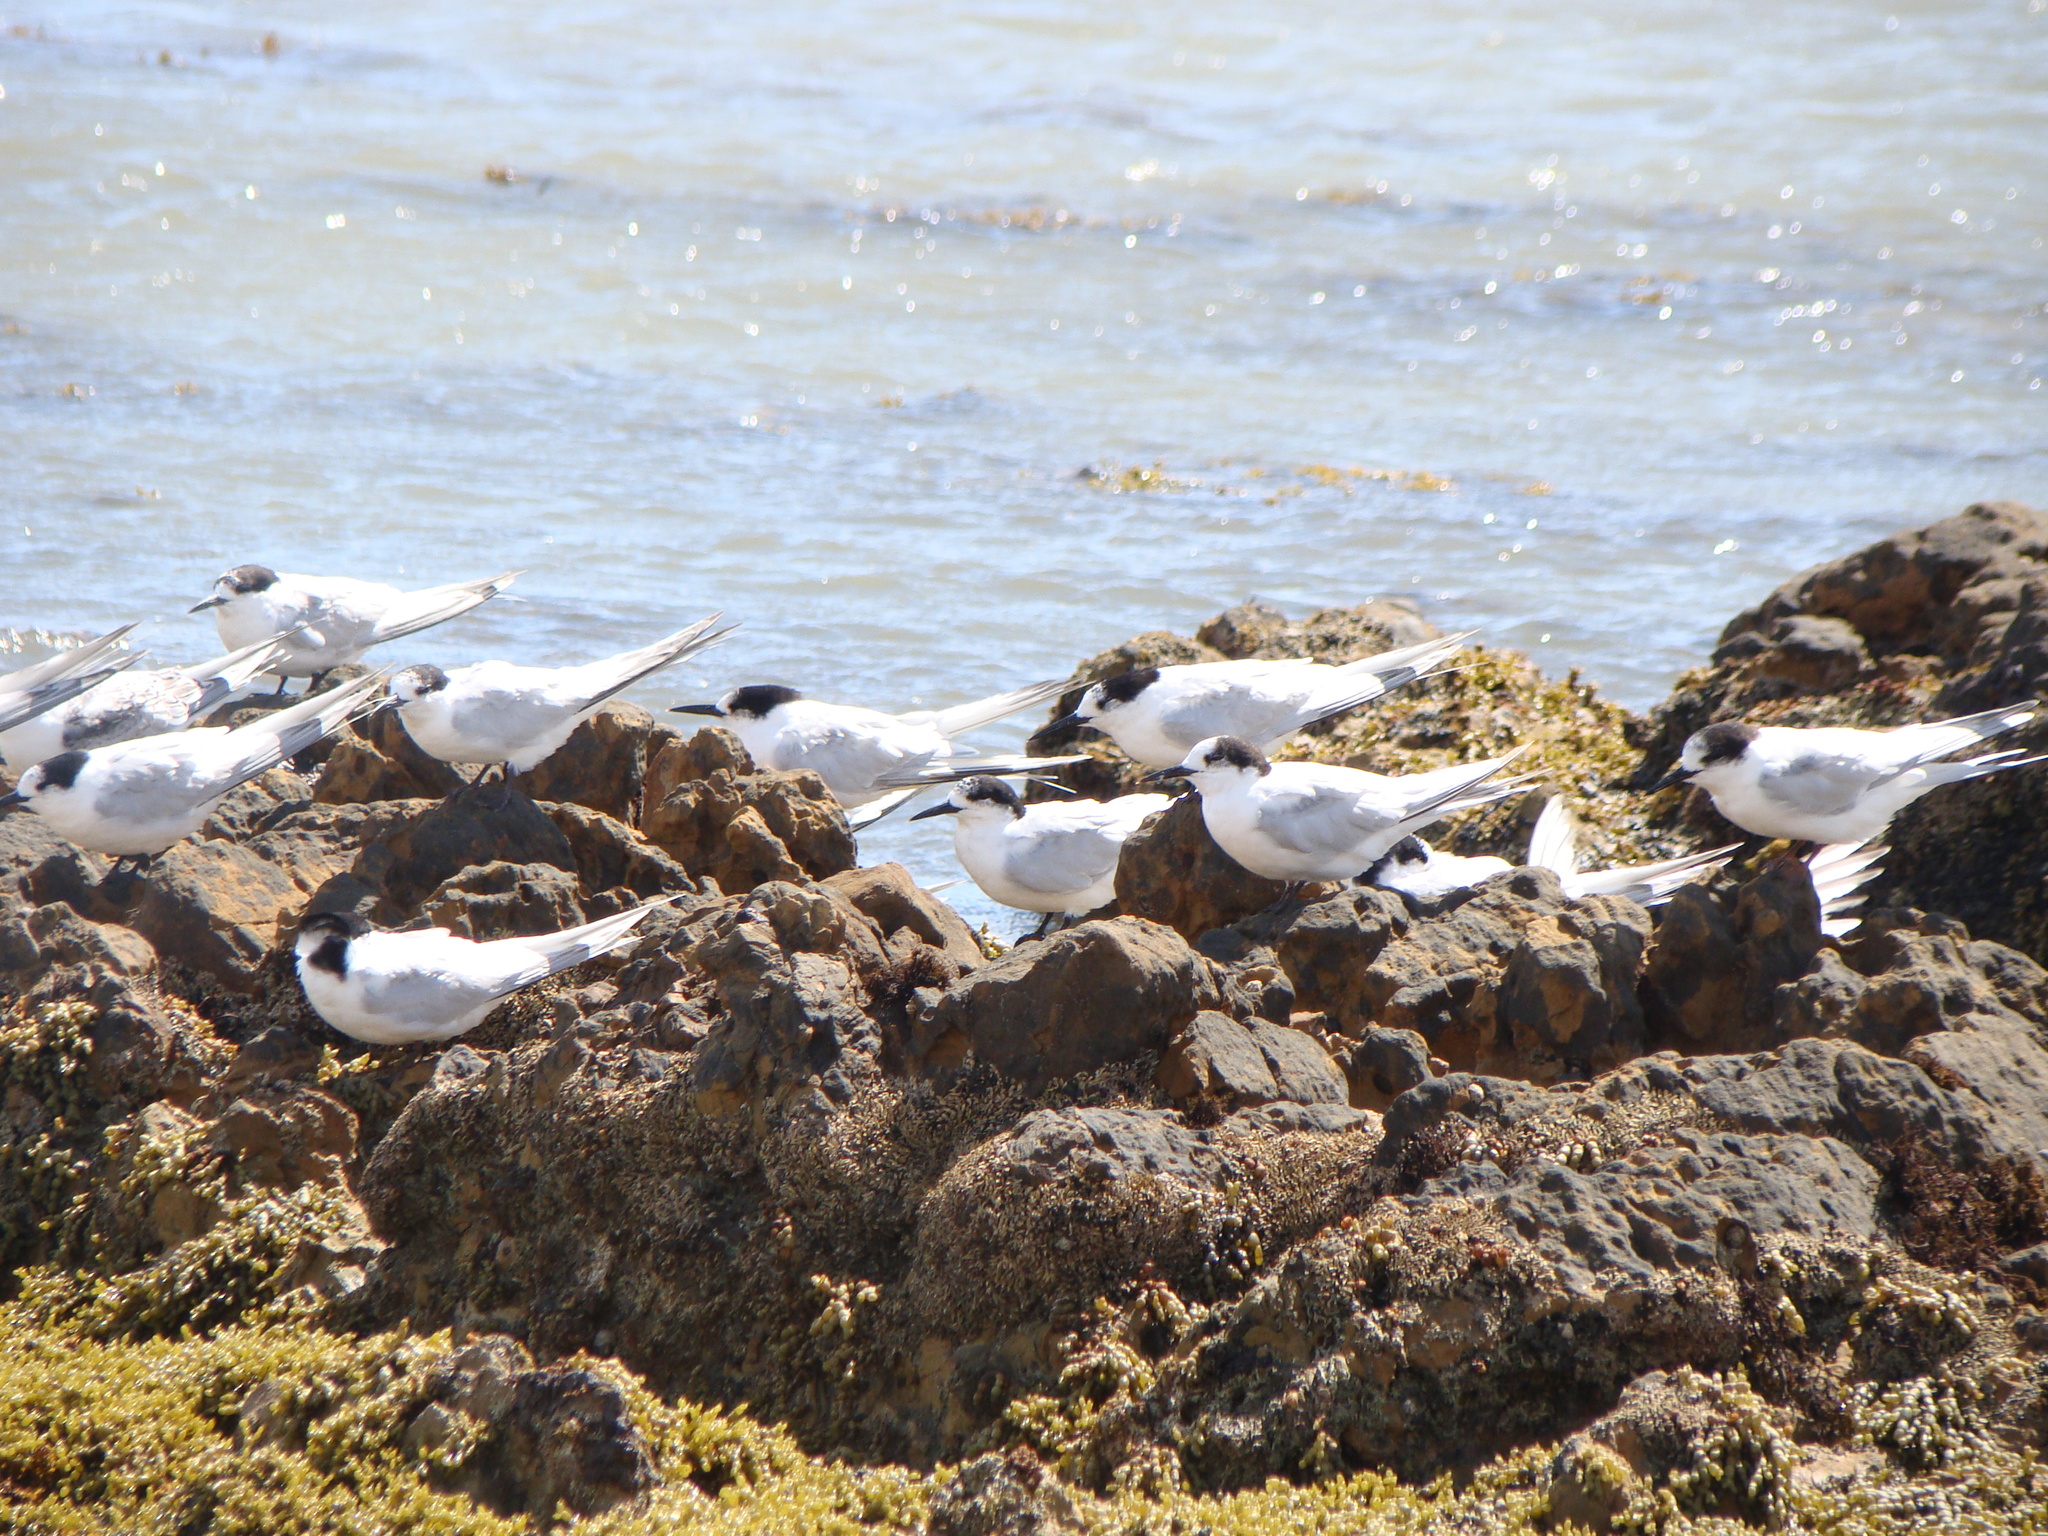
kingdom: Animalia
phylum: Chordata
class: Aves
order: Charadriiformes
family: Laridae
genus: Sterna
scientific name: Sterna striata
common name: White-fronted tern
